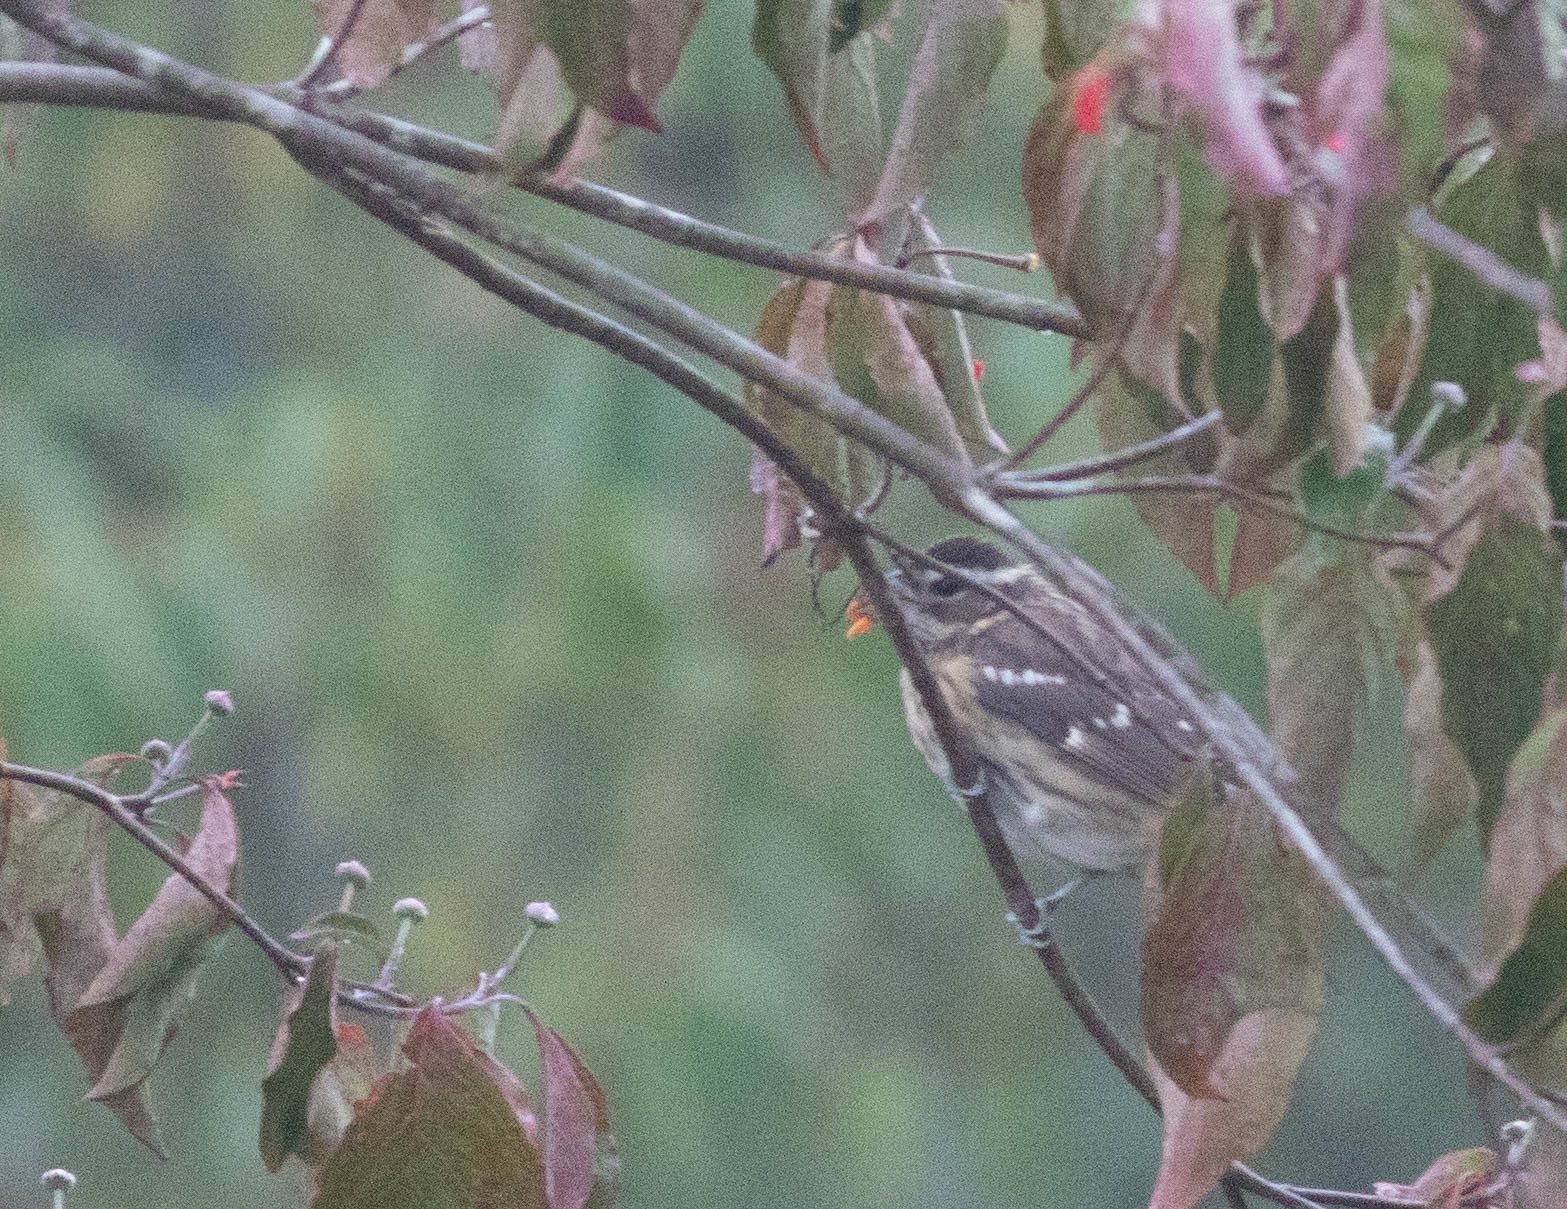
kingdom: Animalia
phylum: Chordata
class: Aves
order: Passeriformes
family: Cardinalidae
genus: Pheucticus
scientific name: Pheucticus ludovicianus
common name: Rose-breasted grosbeak
